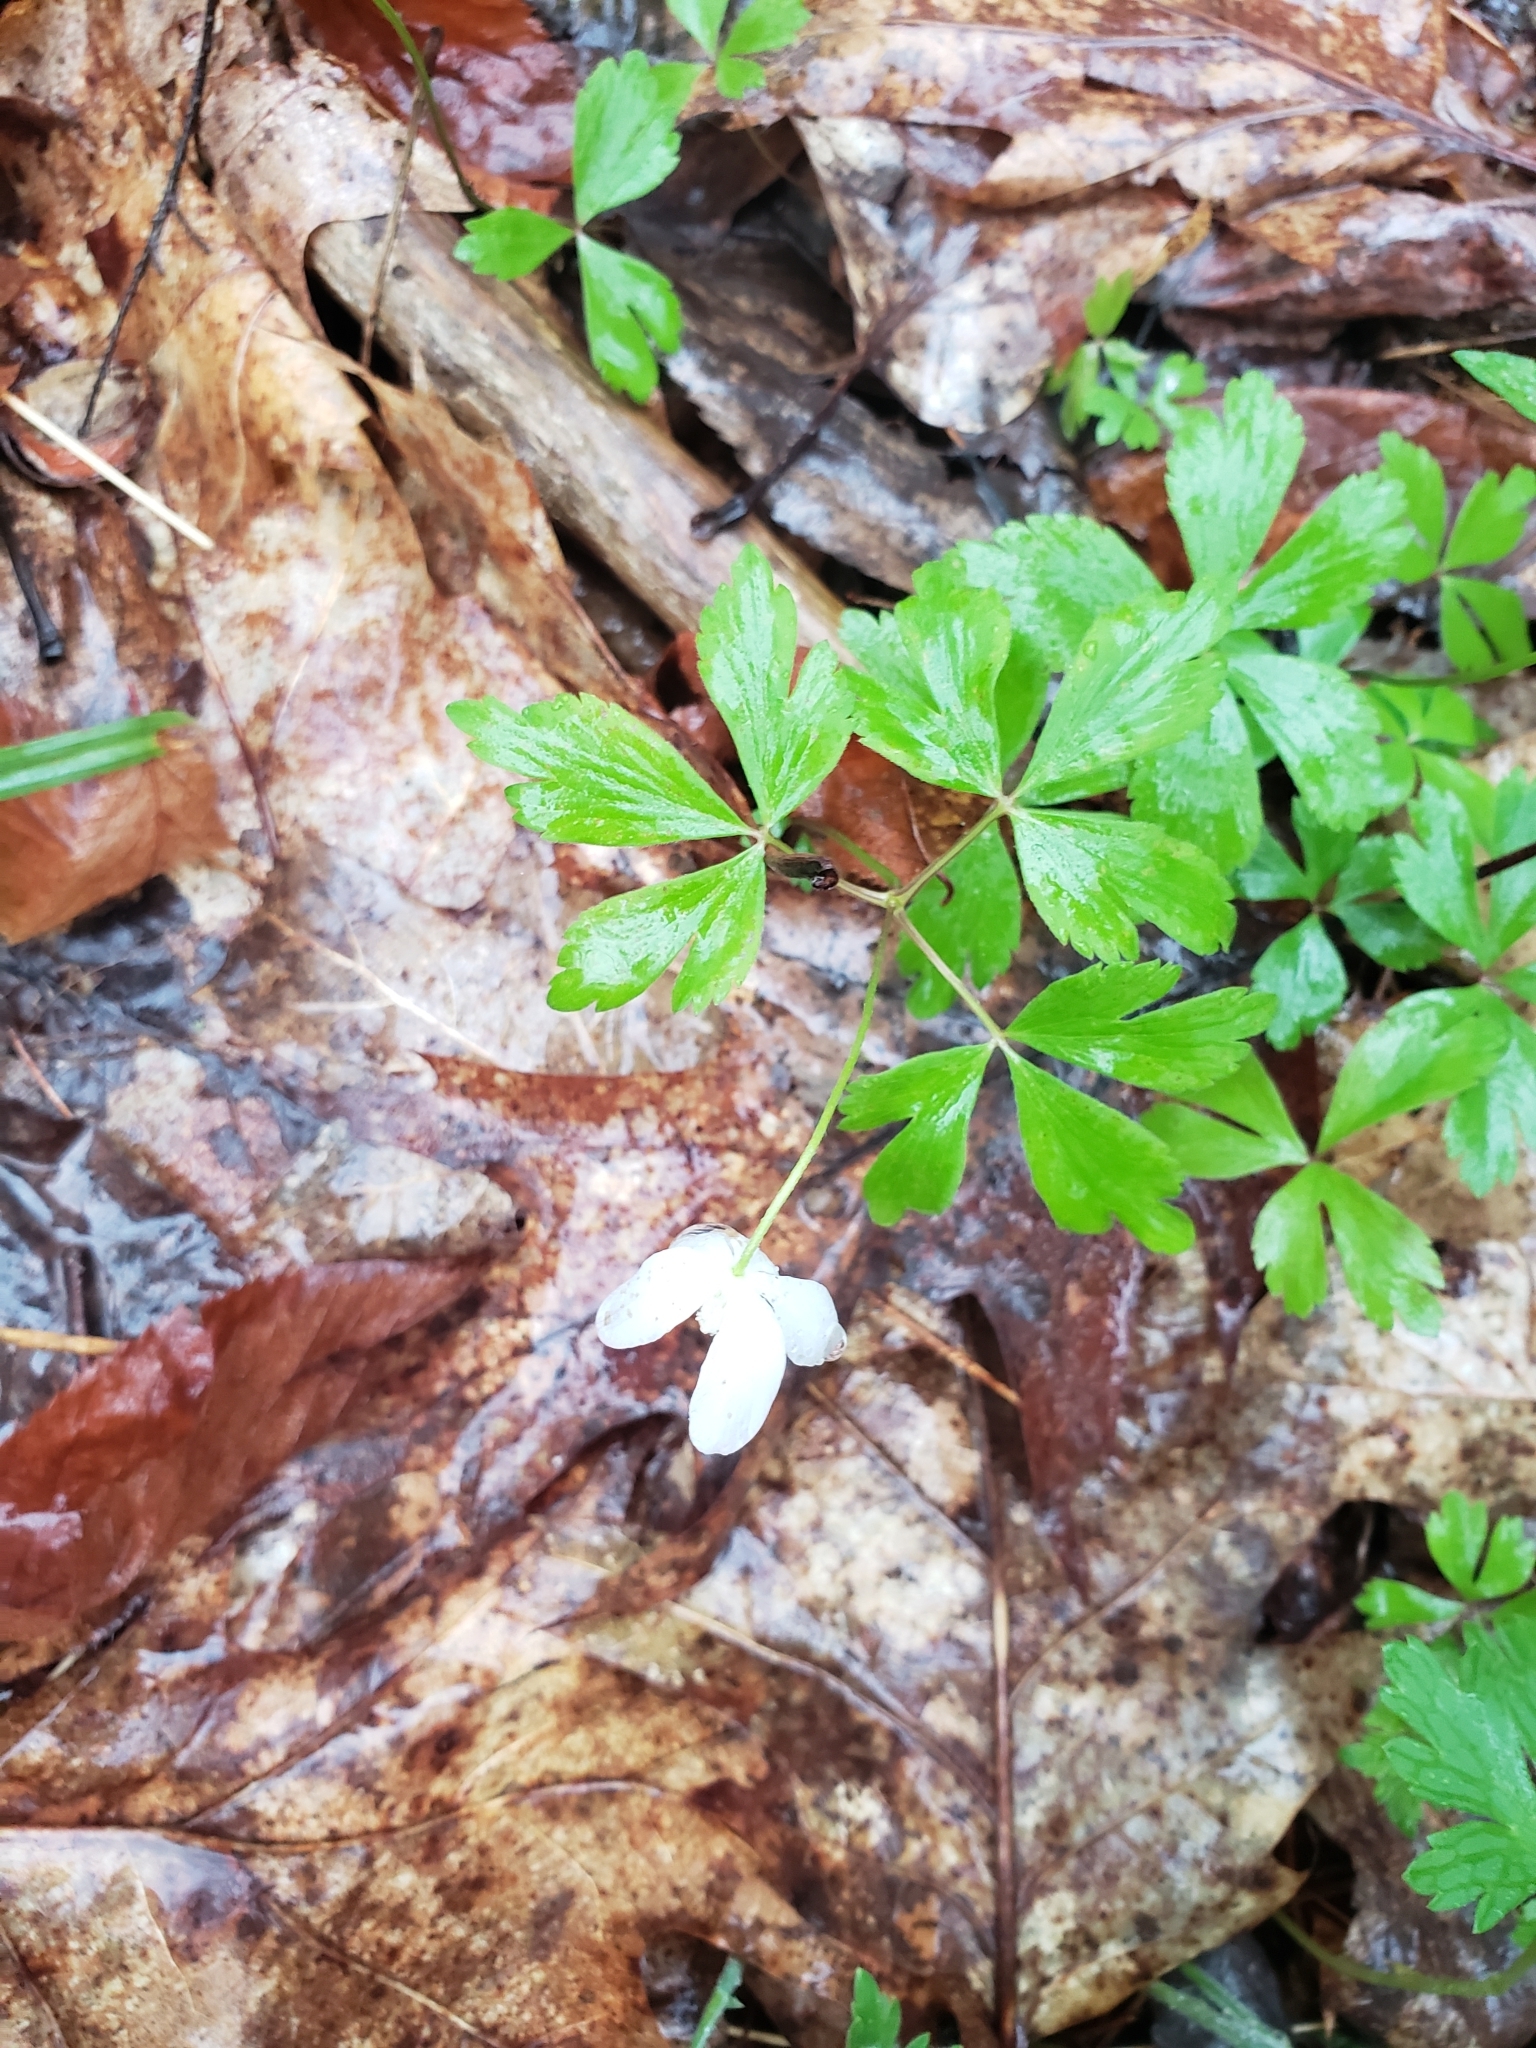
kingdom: Plantae
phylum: Tracheophyta
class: Magnoliopsida
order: Ranunculales
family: Ranunculaceae
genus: Anemone
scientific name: Anemone quinquefolia
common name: Wood anemone
